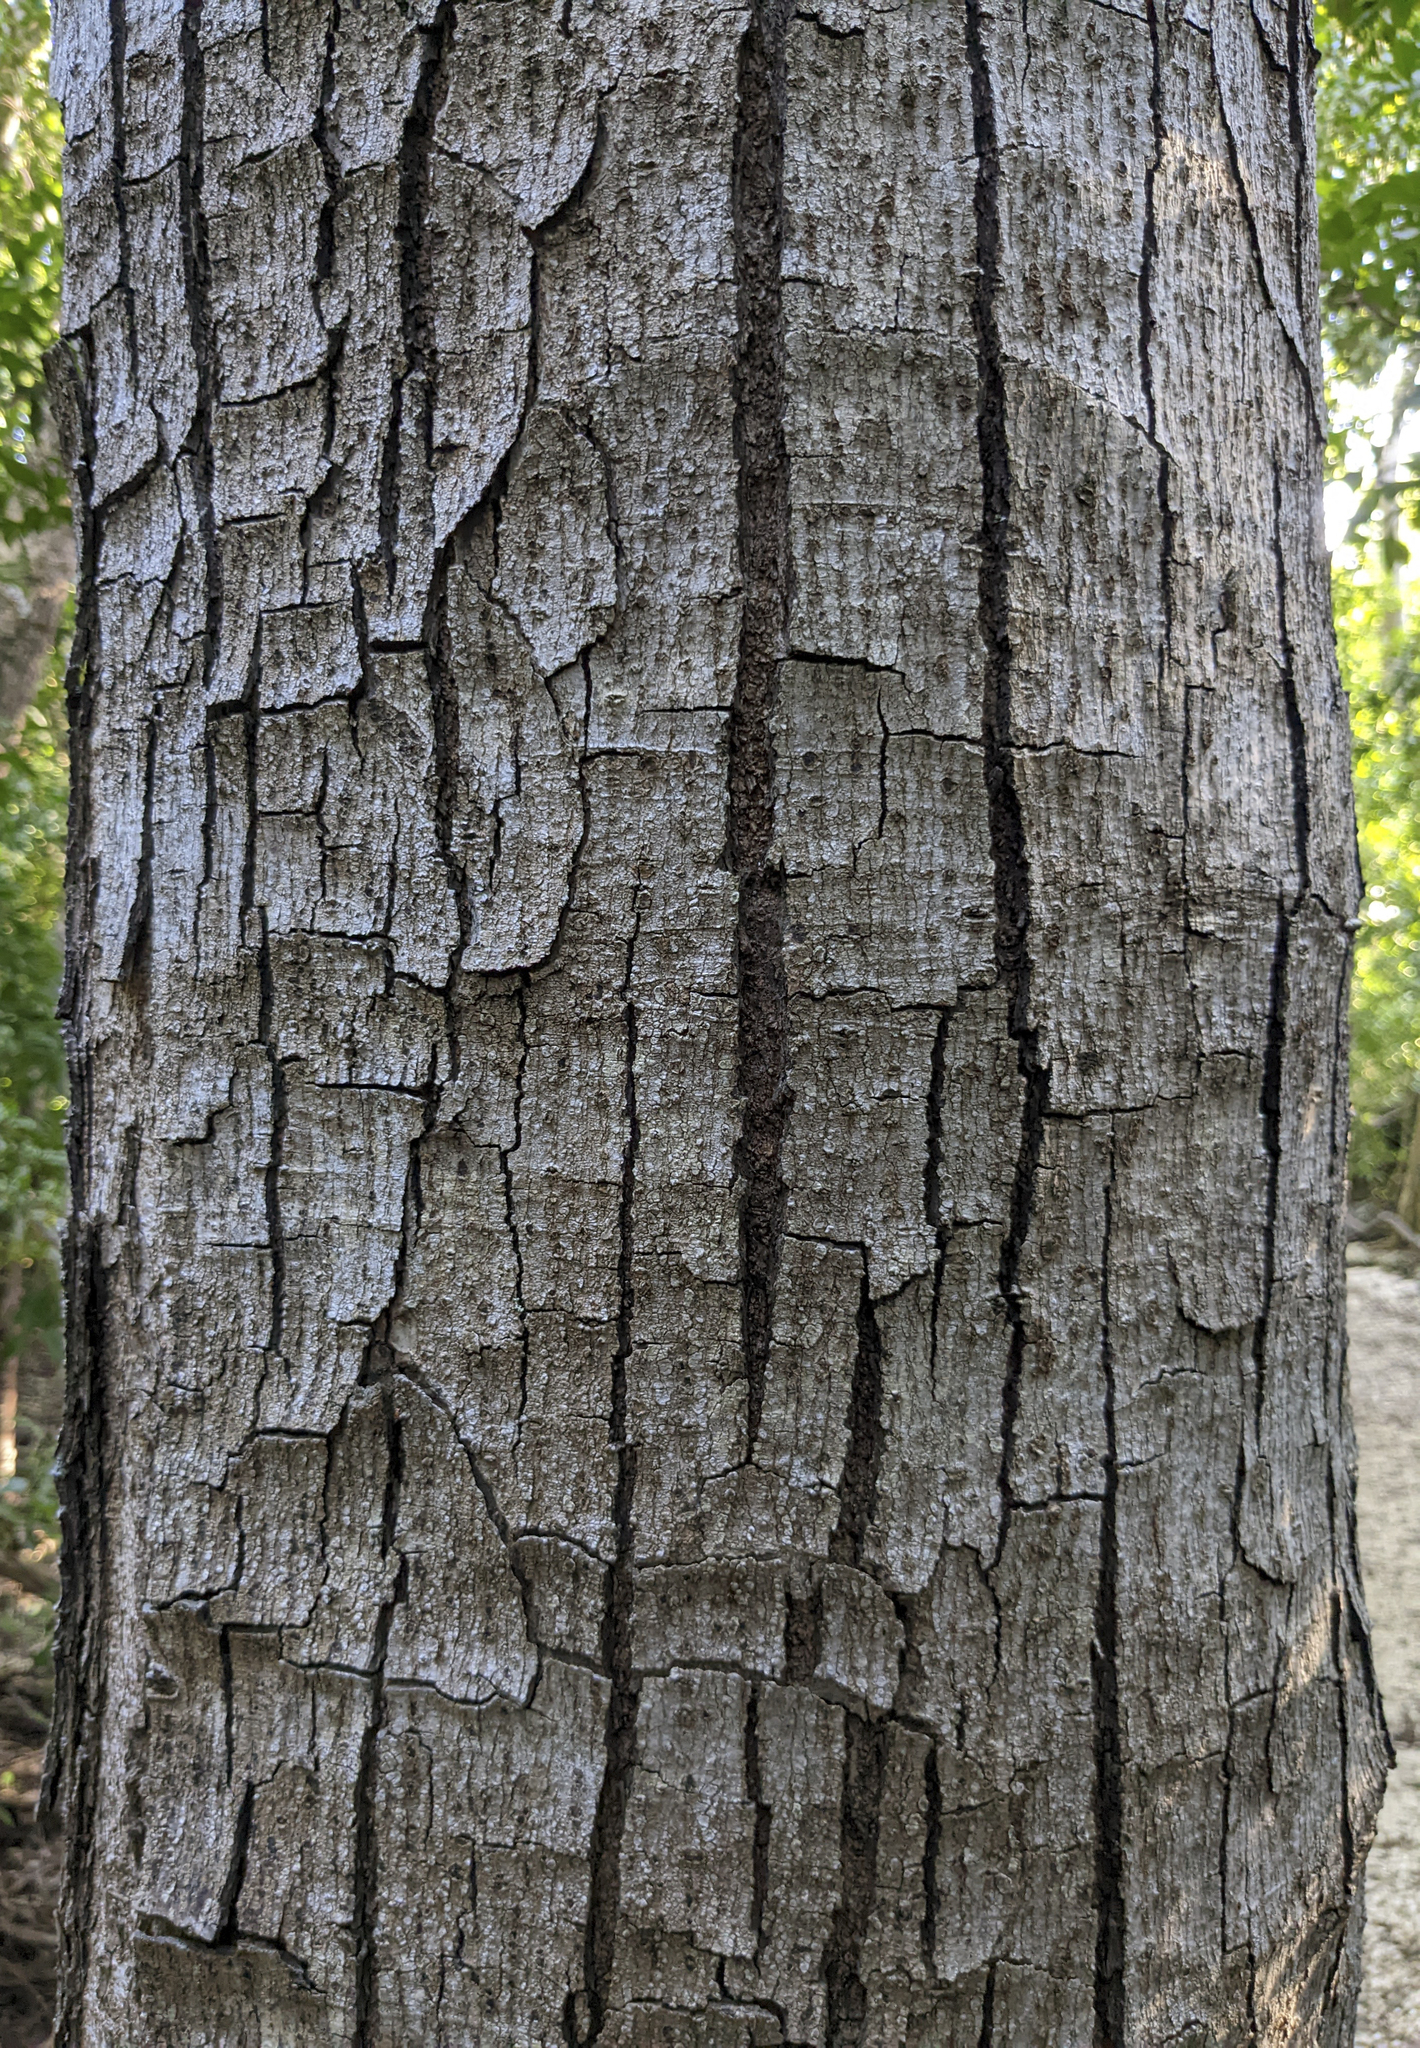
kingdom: Plantae
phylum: Tracheophyta
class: Magnoliopsida
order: Fabales
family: Fabaceae
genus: Lysiloma
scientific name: Lysiloma latisiliquum
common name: Wild tamarind
